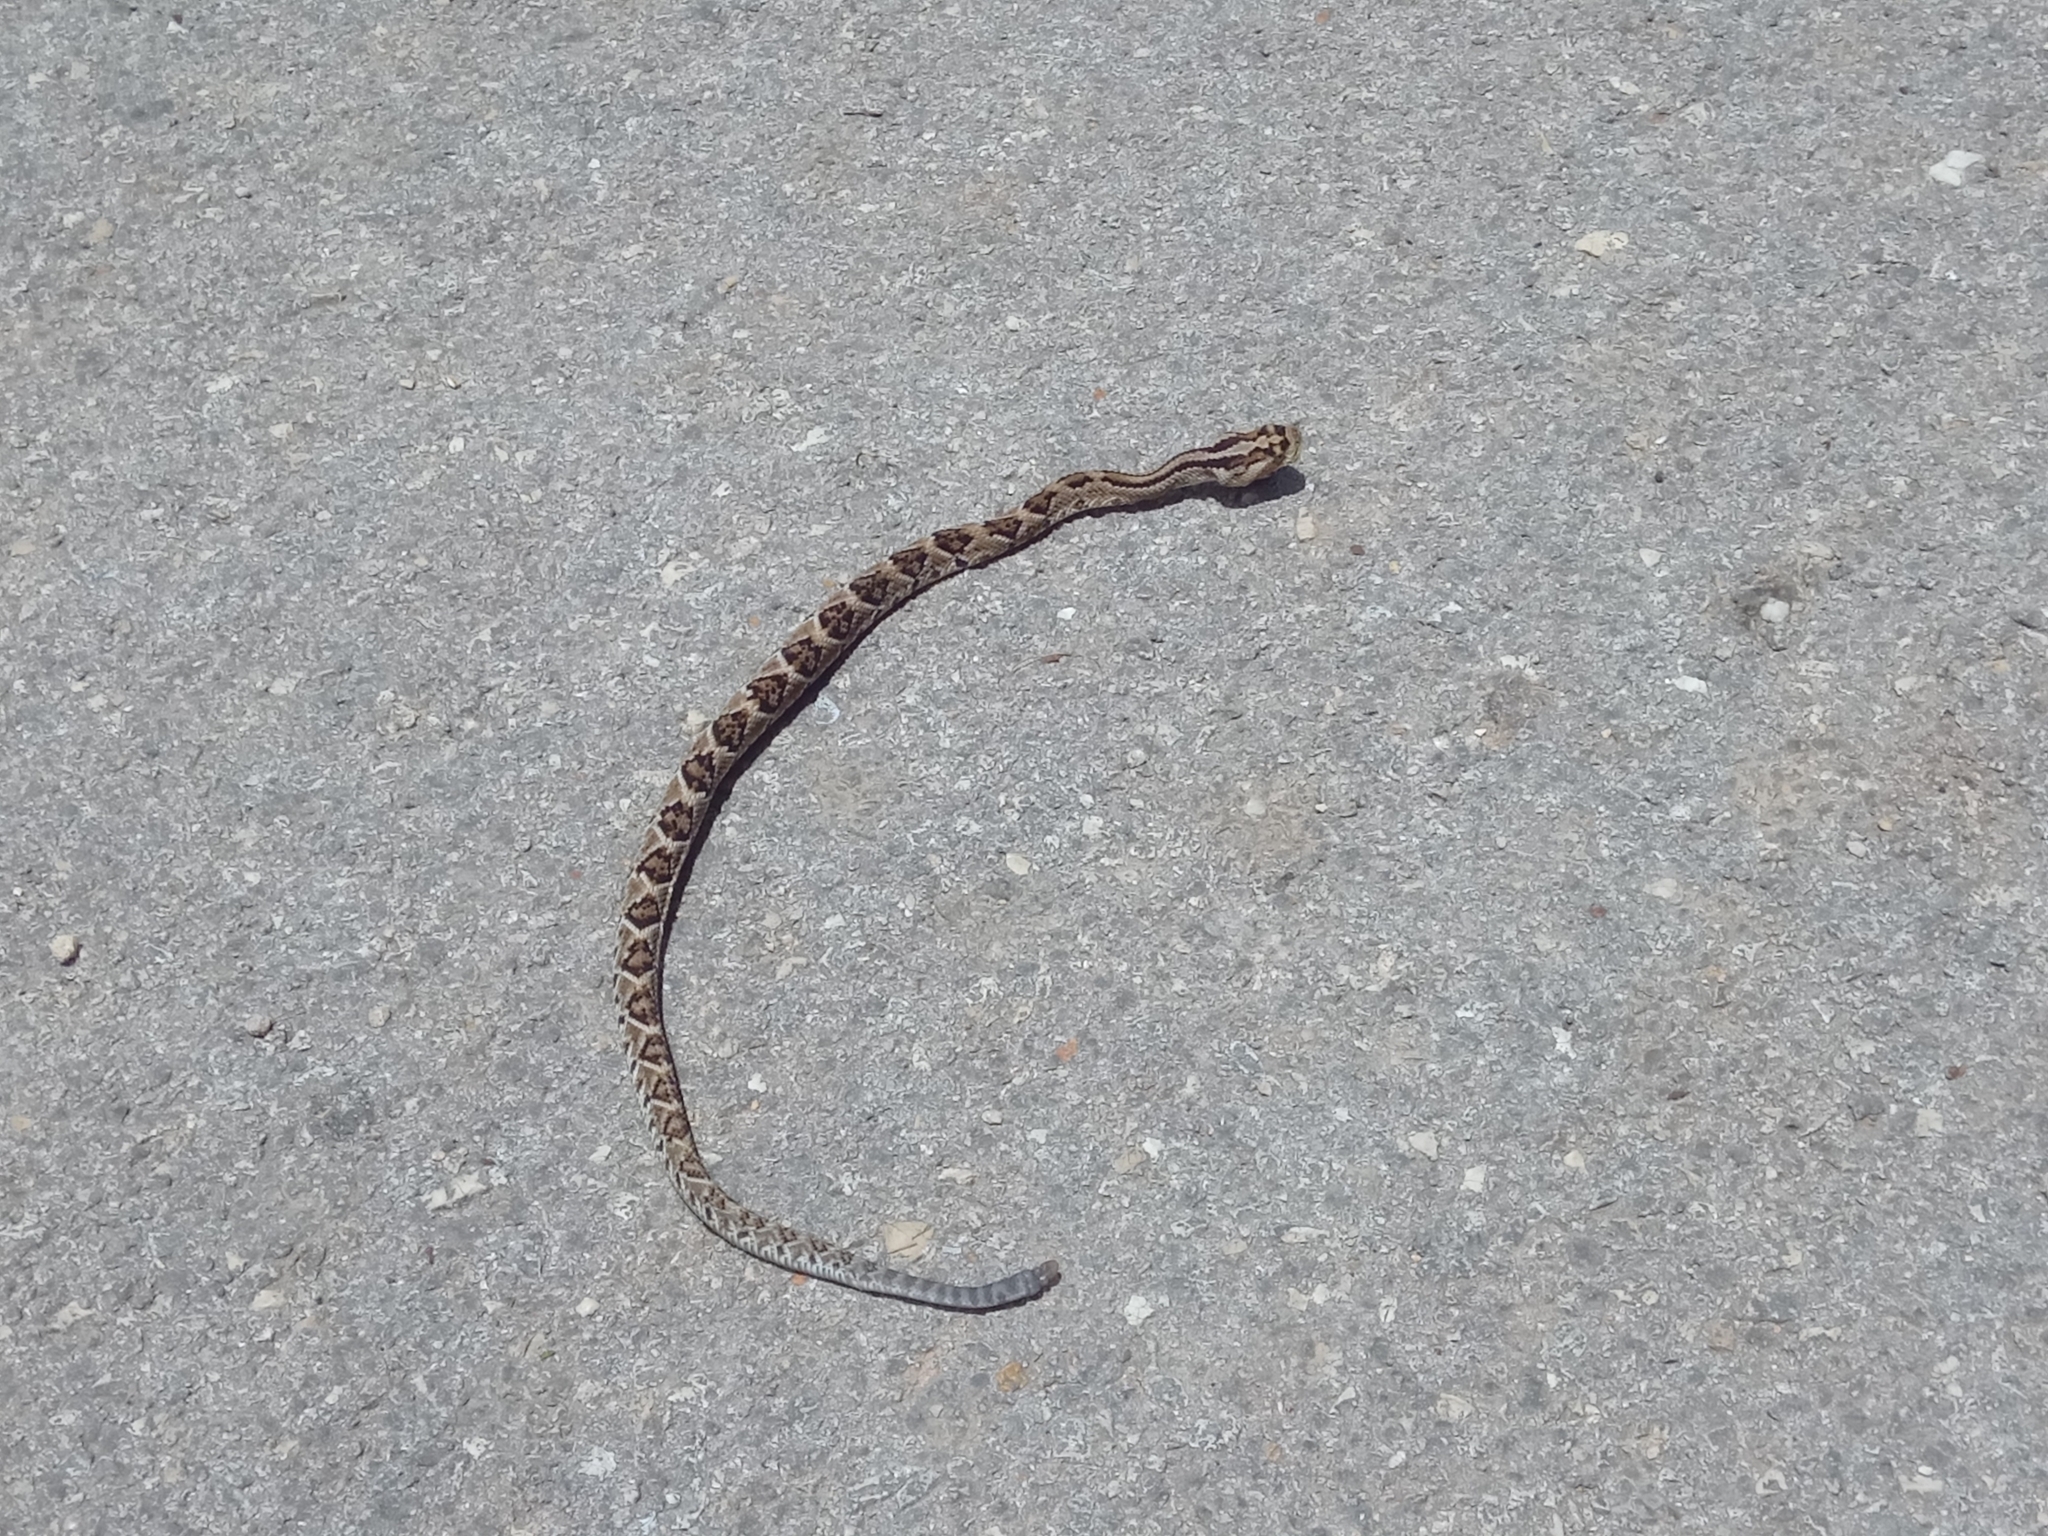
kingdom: Animalia
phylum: Chordata
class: Squamata
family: Viperidae
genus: Crotalus
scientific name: Crotalus tzabcan
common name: Yucatan neotropical rattlesnake
